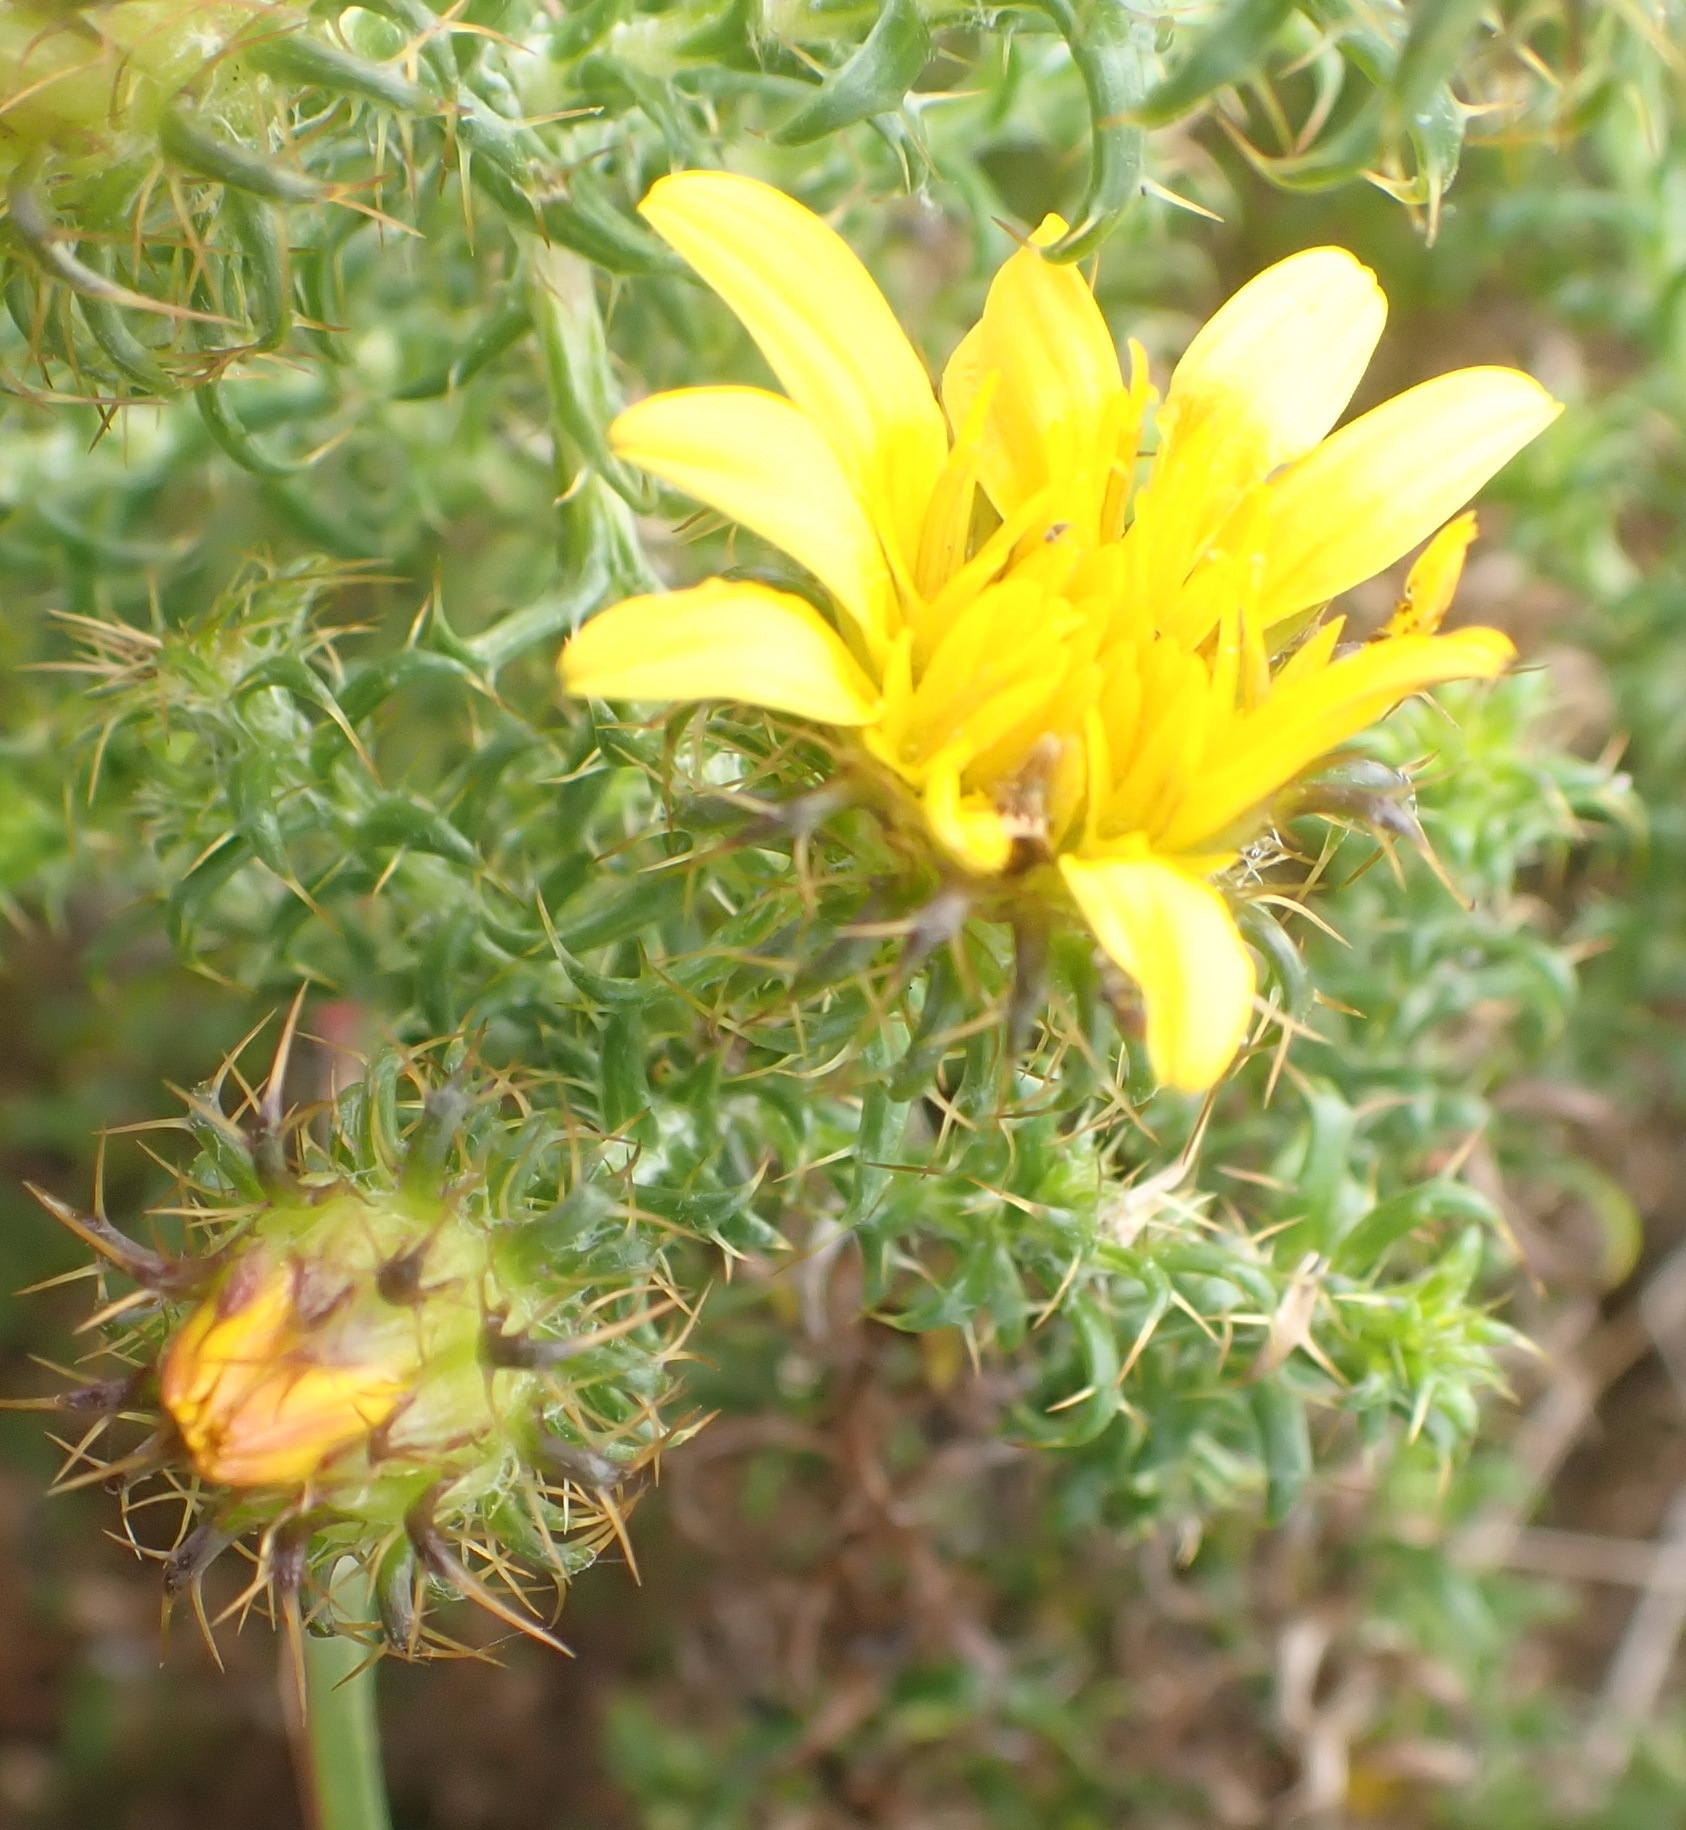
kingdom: Plantae
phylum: Tracheophyta
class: Magnoliopsida
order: Asterales
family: Asteraceae
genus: Cullumia
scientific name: Cullumia decurrens
